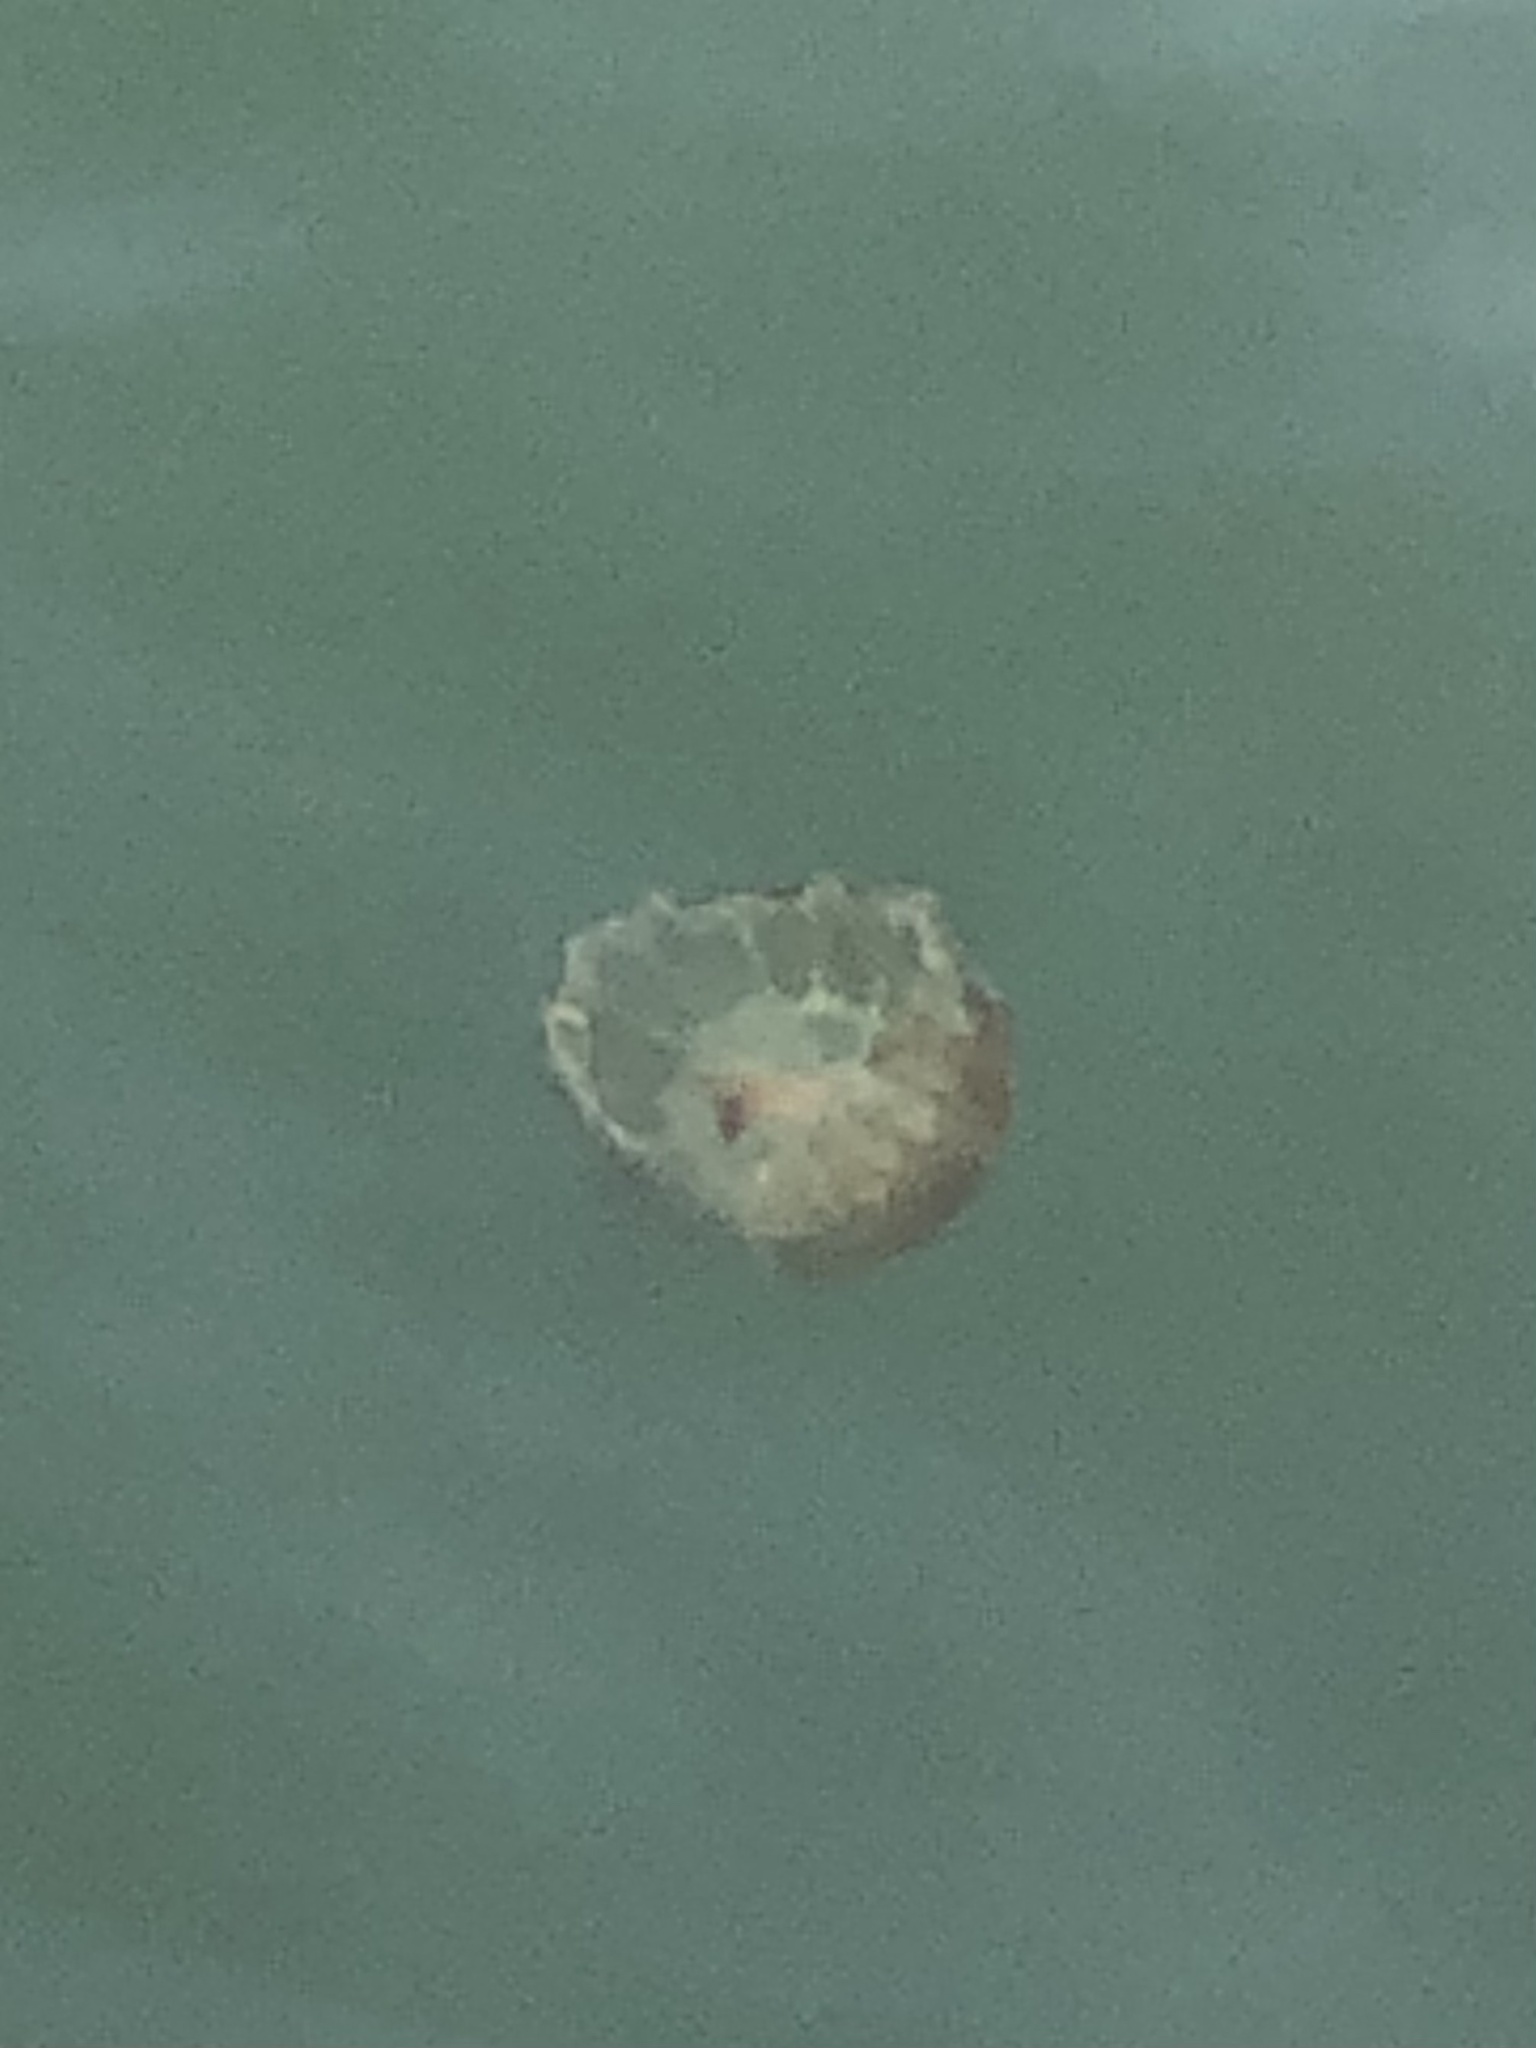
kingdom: Animalia
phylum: Cnidaria
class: Scyphozoa
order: Semaeostomeae
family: Pelagiidae
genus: Chrysaora
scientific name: Chrysaora fuscescens
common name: Sea nettle
